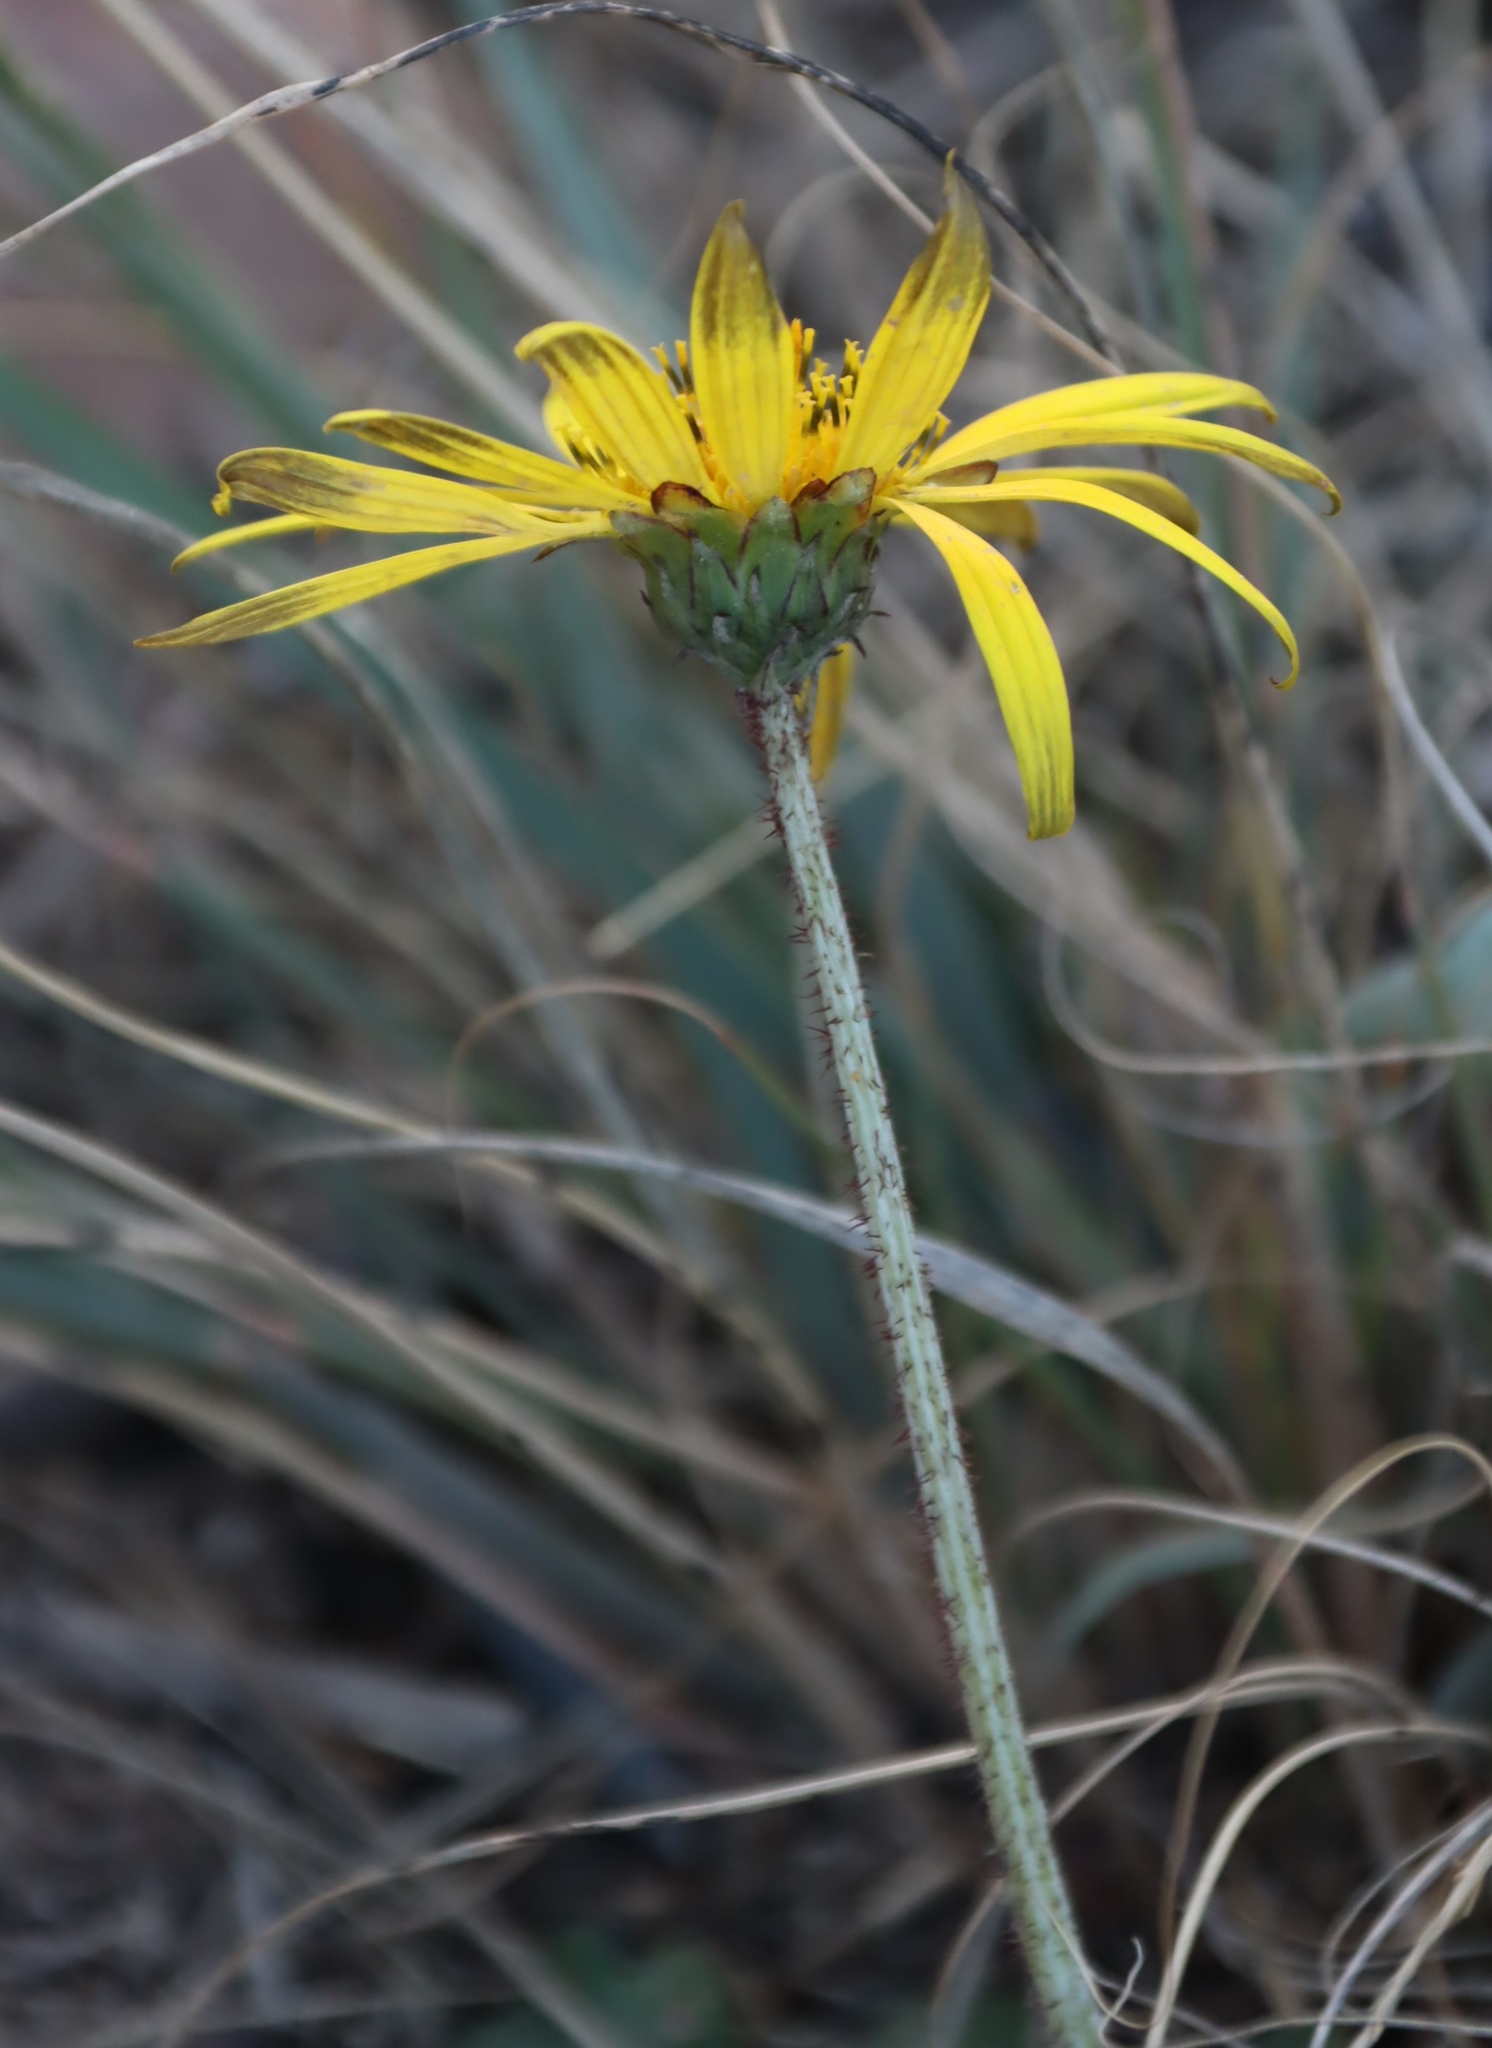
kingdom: Plantae
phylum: Tracheophyta
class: Magnoliopsida
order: Asterales
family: Asteraceae
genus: Arctotheca
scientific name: Arctotheca prostrata
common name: Capeweed
